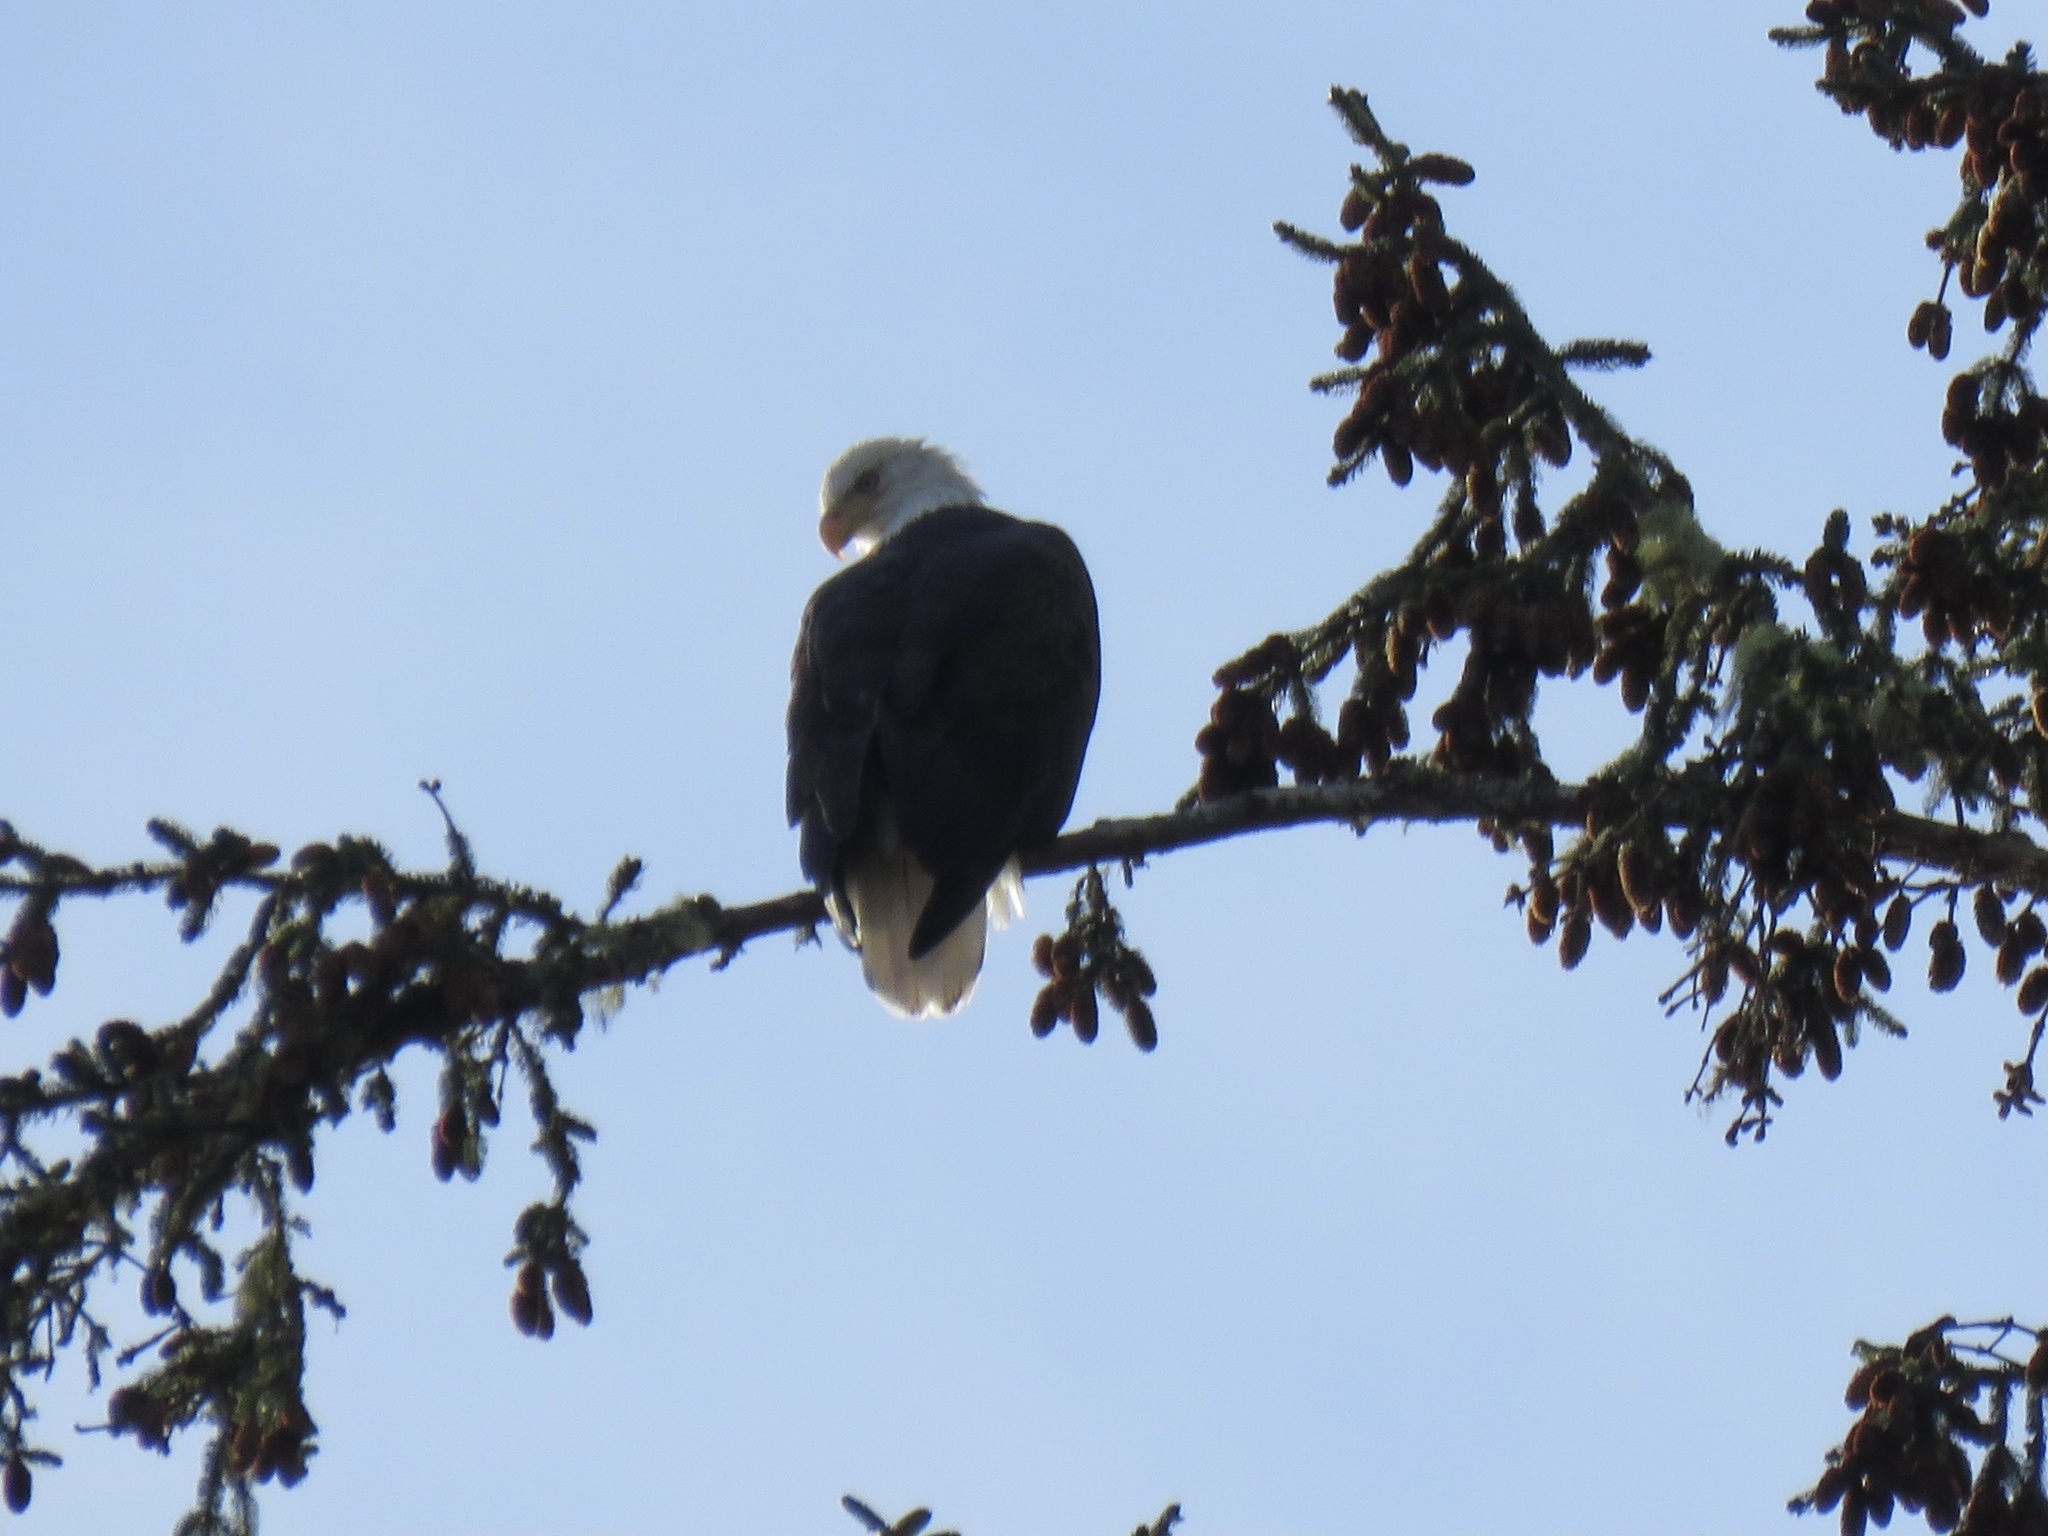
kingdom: Animalia
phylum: Chordata
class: Aves
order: Accipitriformes
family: Accipitridae
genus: Haliaeetus
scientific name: Haliaeetus leucocephalus
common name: Bald eagle
